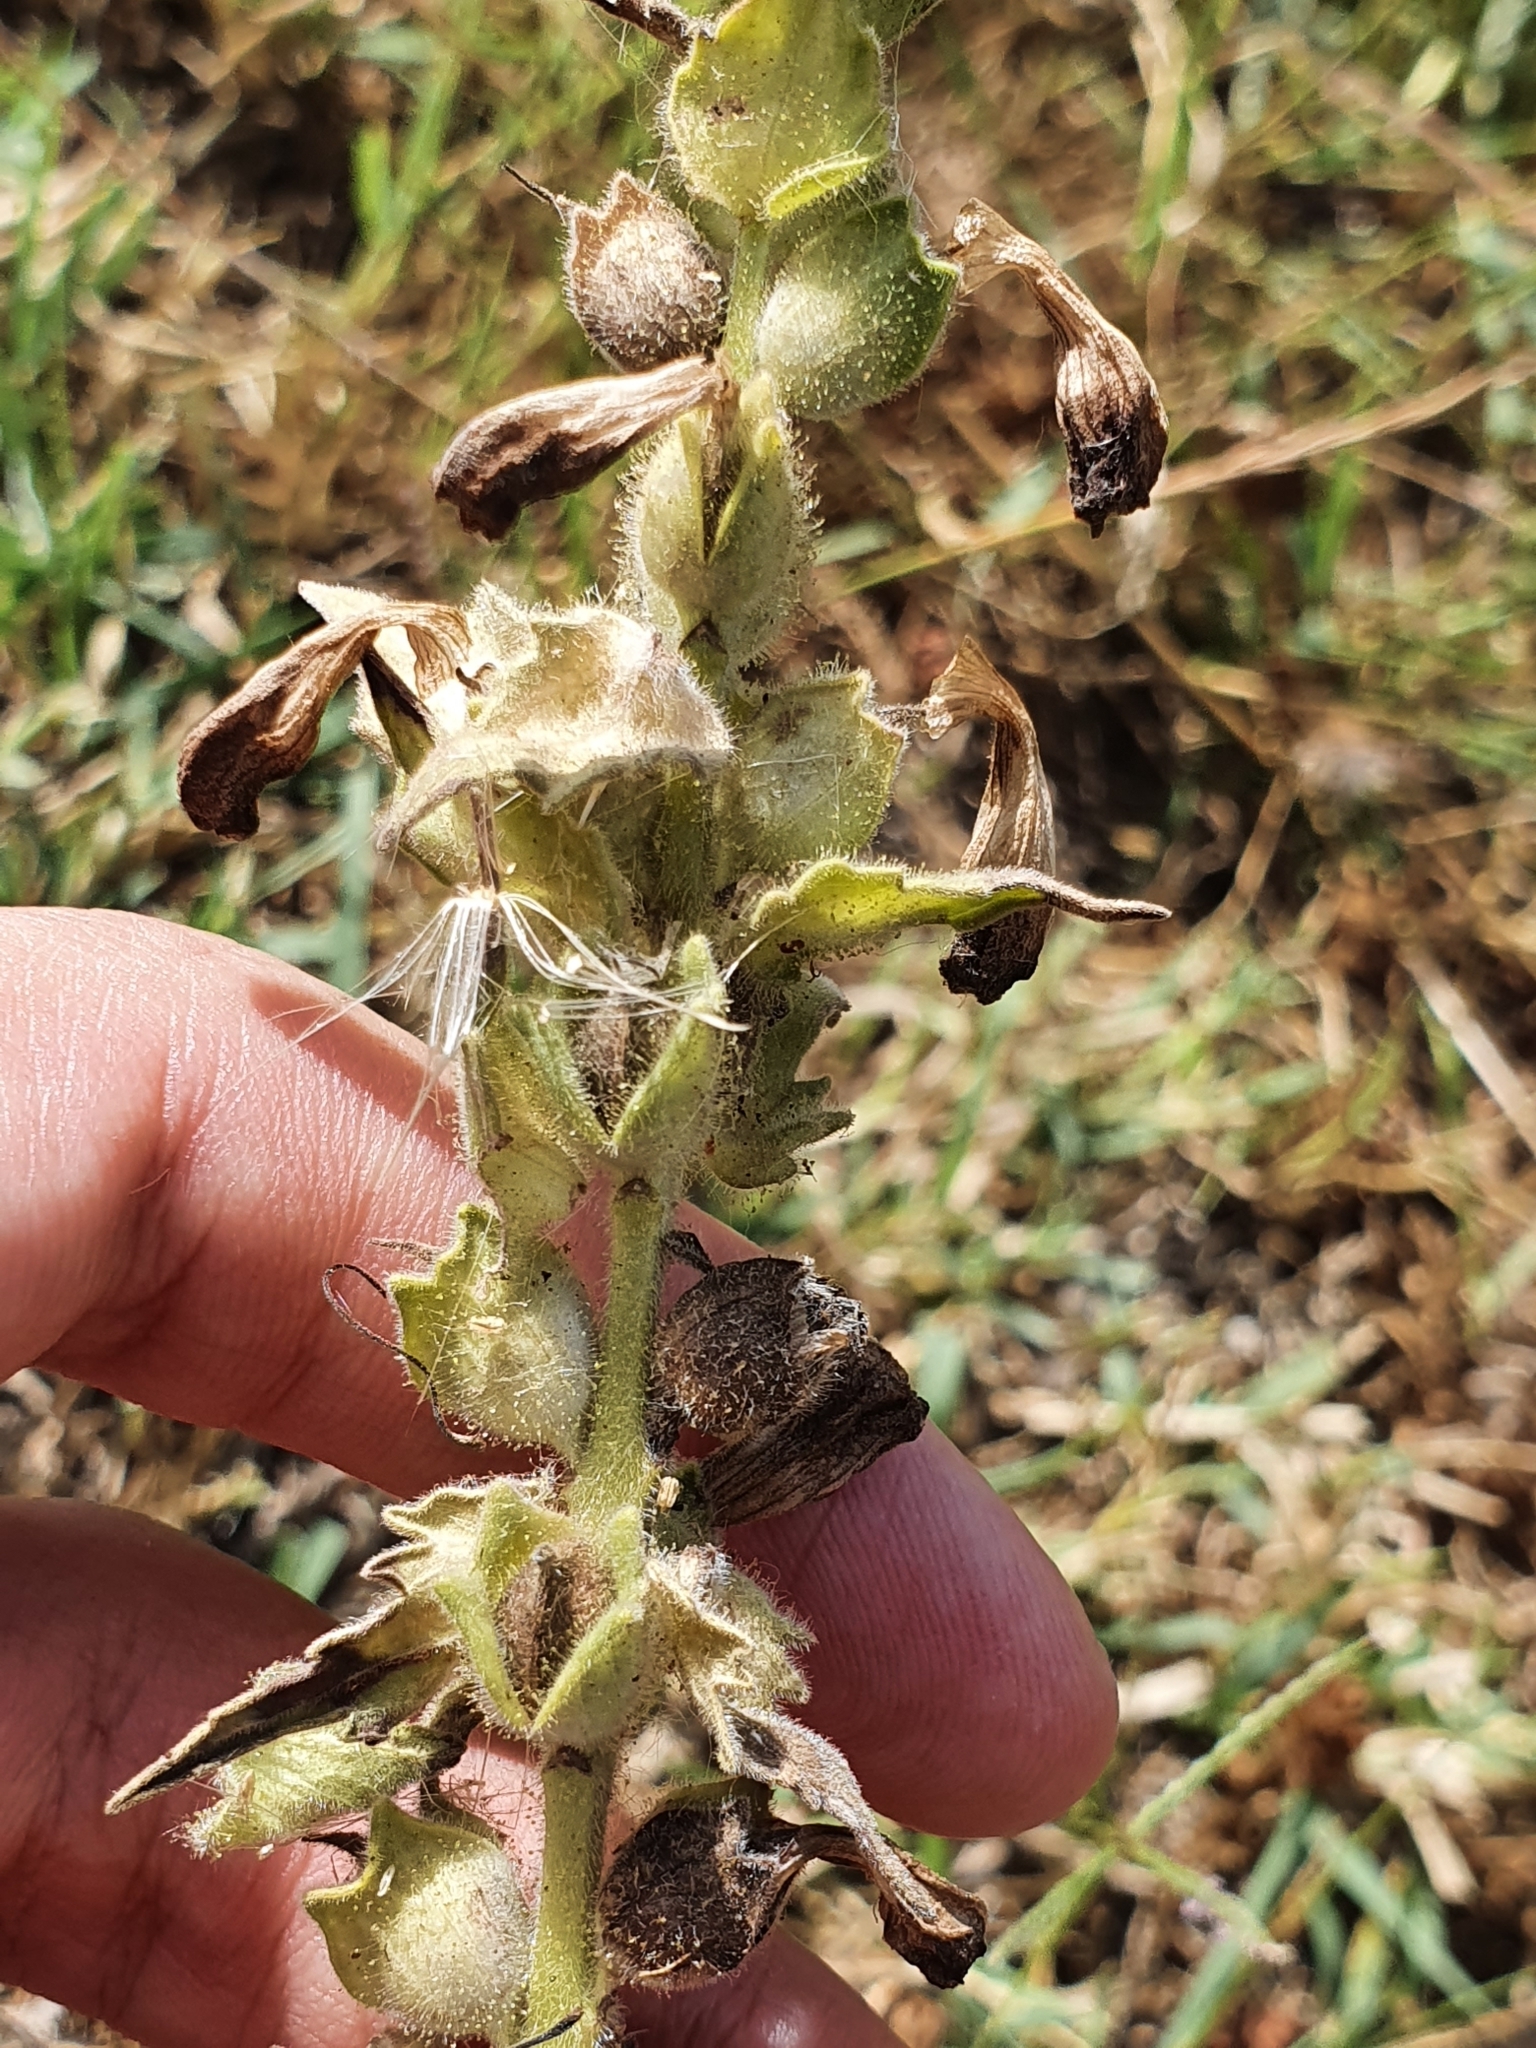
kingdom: Plantae
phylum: Tracheophyta
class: Magnoliopsida
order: Lamiales
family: Orobanchaceae
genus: Bellardia
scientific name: Bellardia trixago
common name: Mediterranean lineseed
